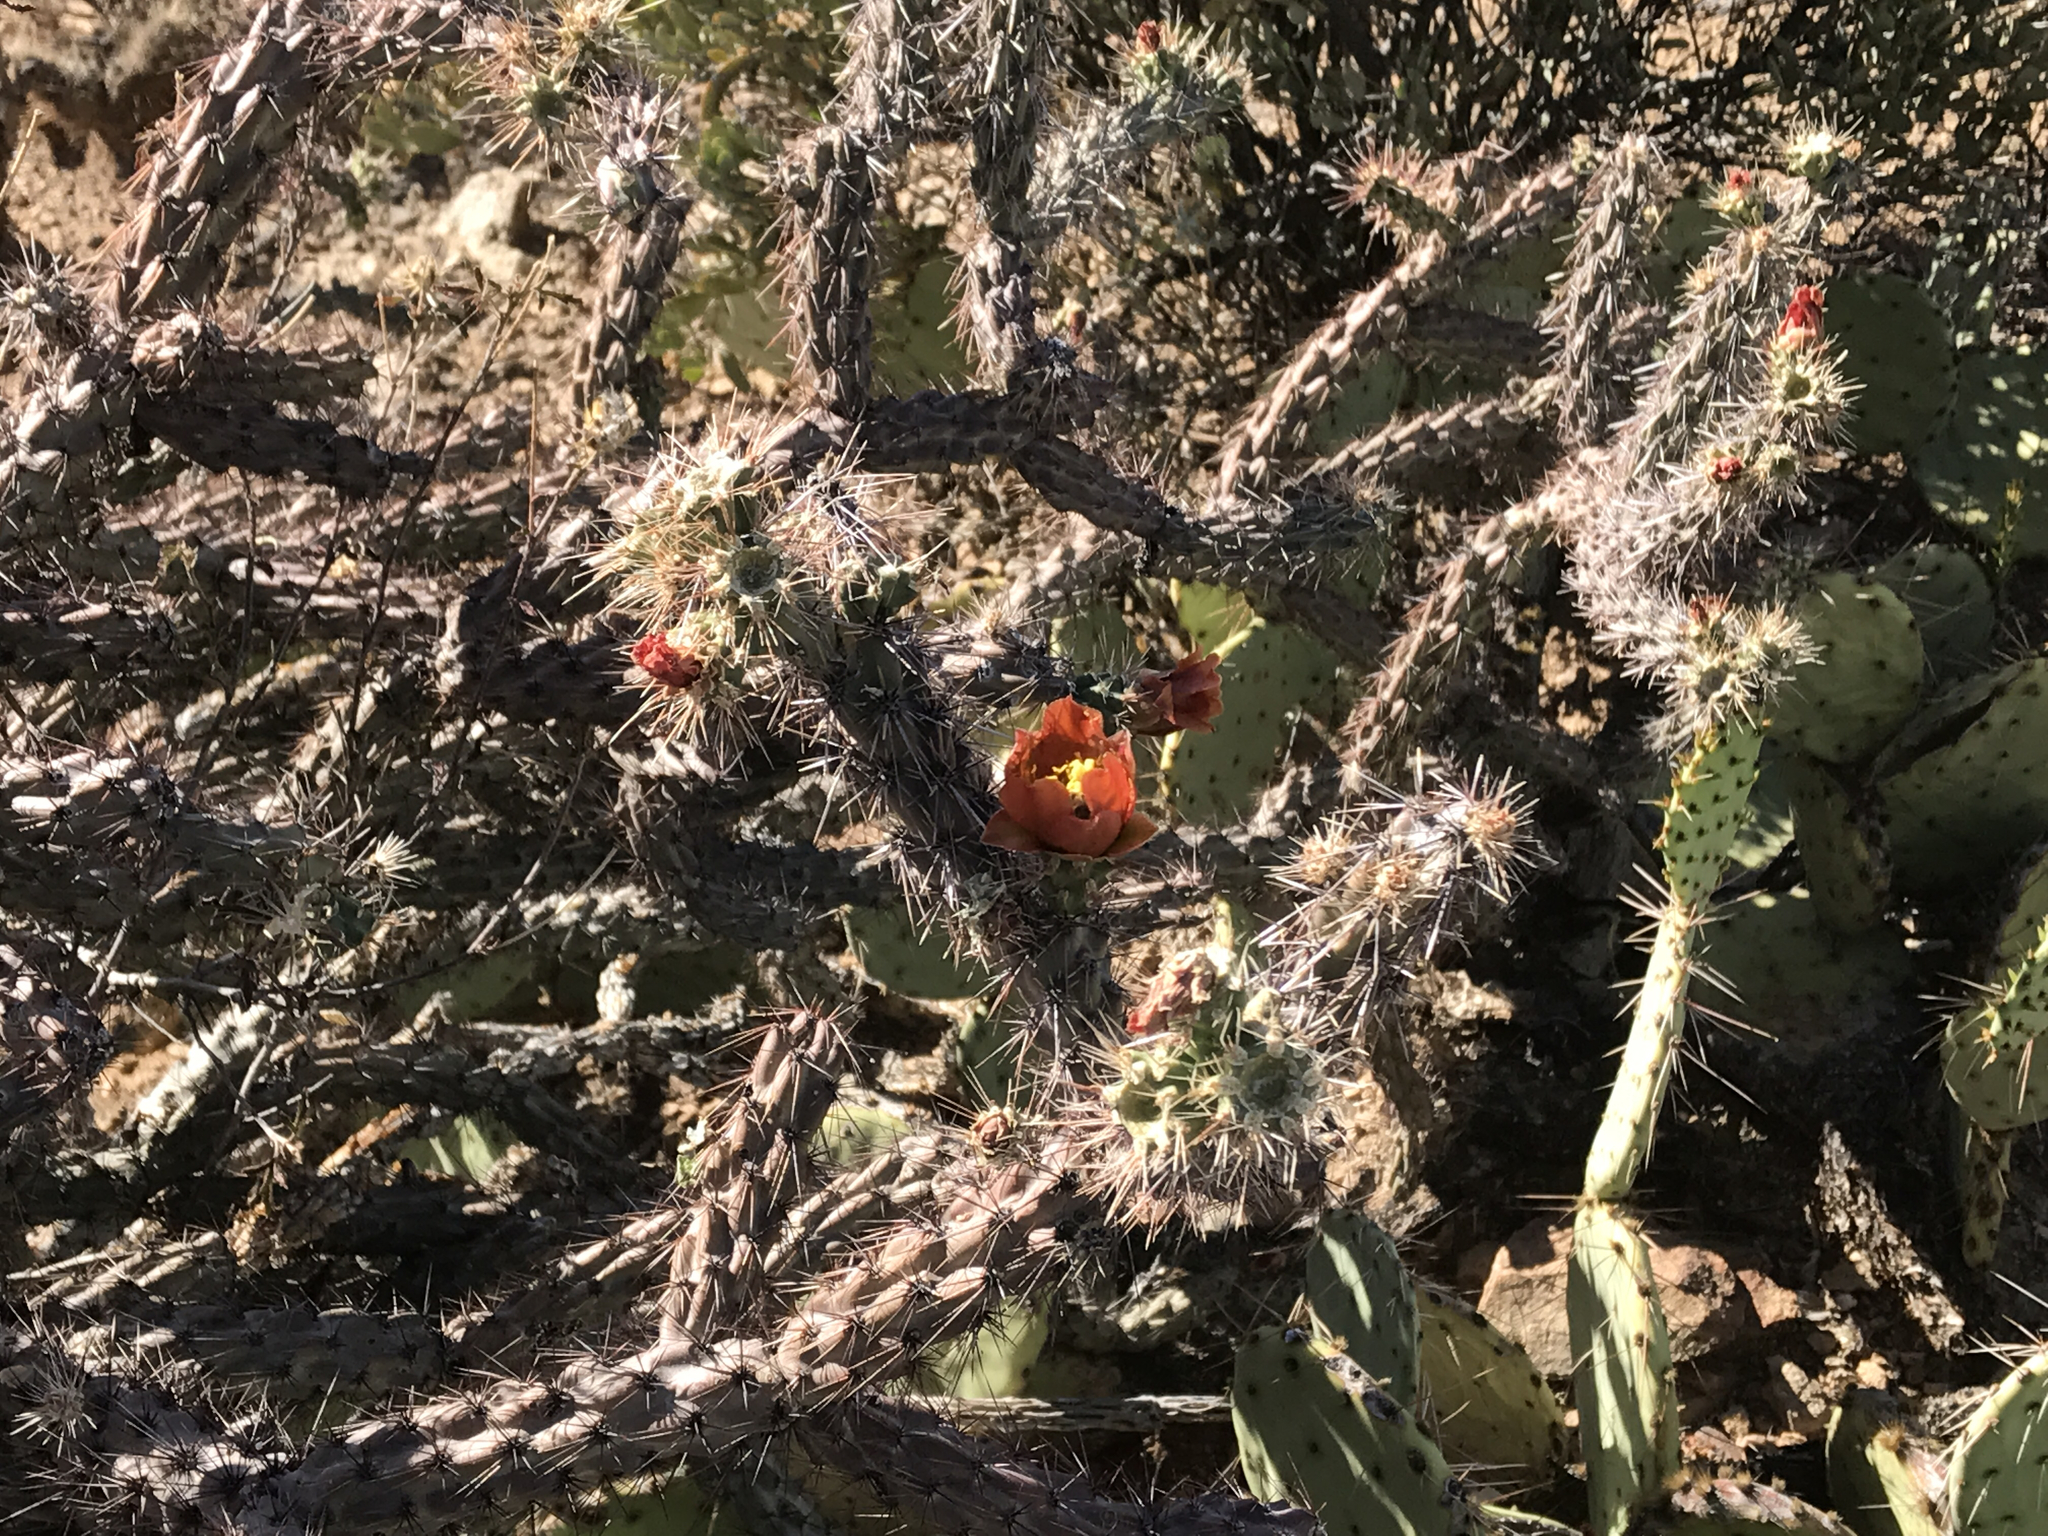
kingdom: Plantae
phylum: Tracheophyta
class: Magnoliopsida
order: Caryophyllales
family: Cactaceae
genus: Cylindropuntia
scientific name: Cylindropuntia acanthocarpa
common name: Buckhorn cholla
